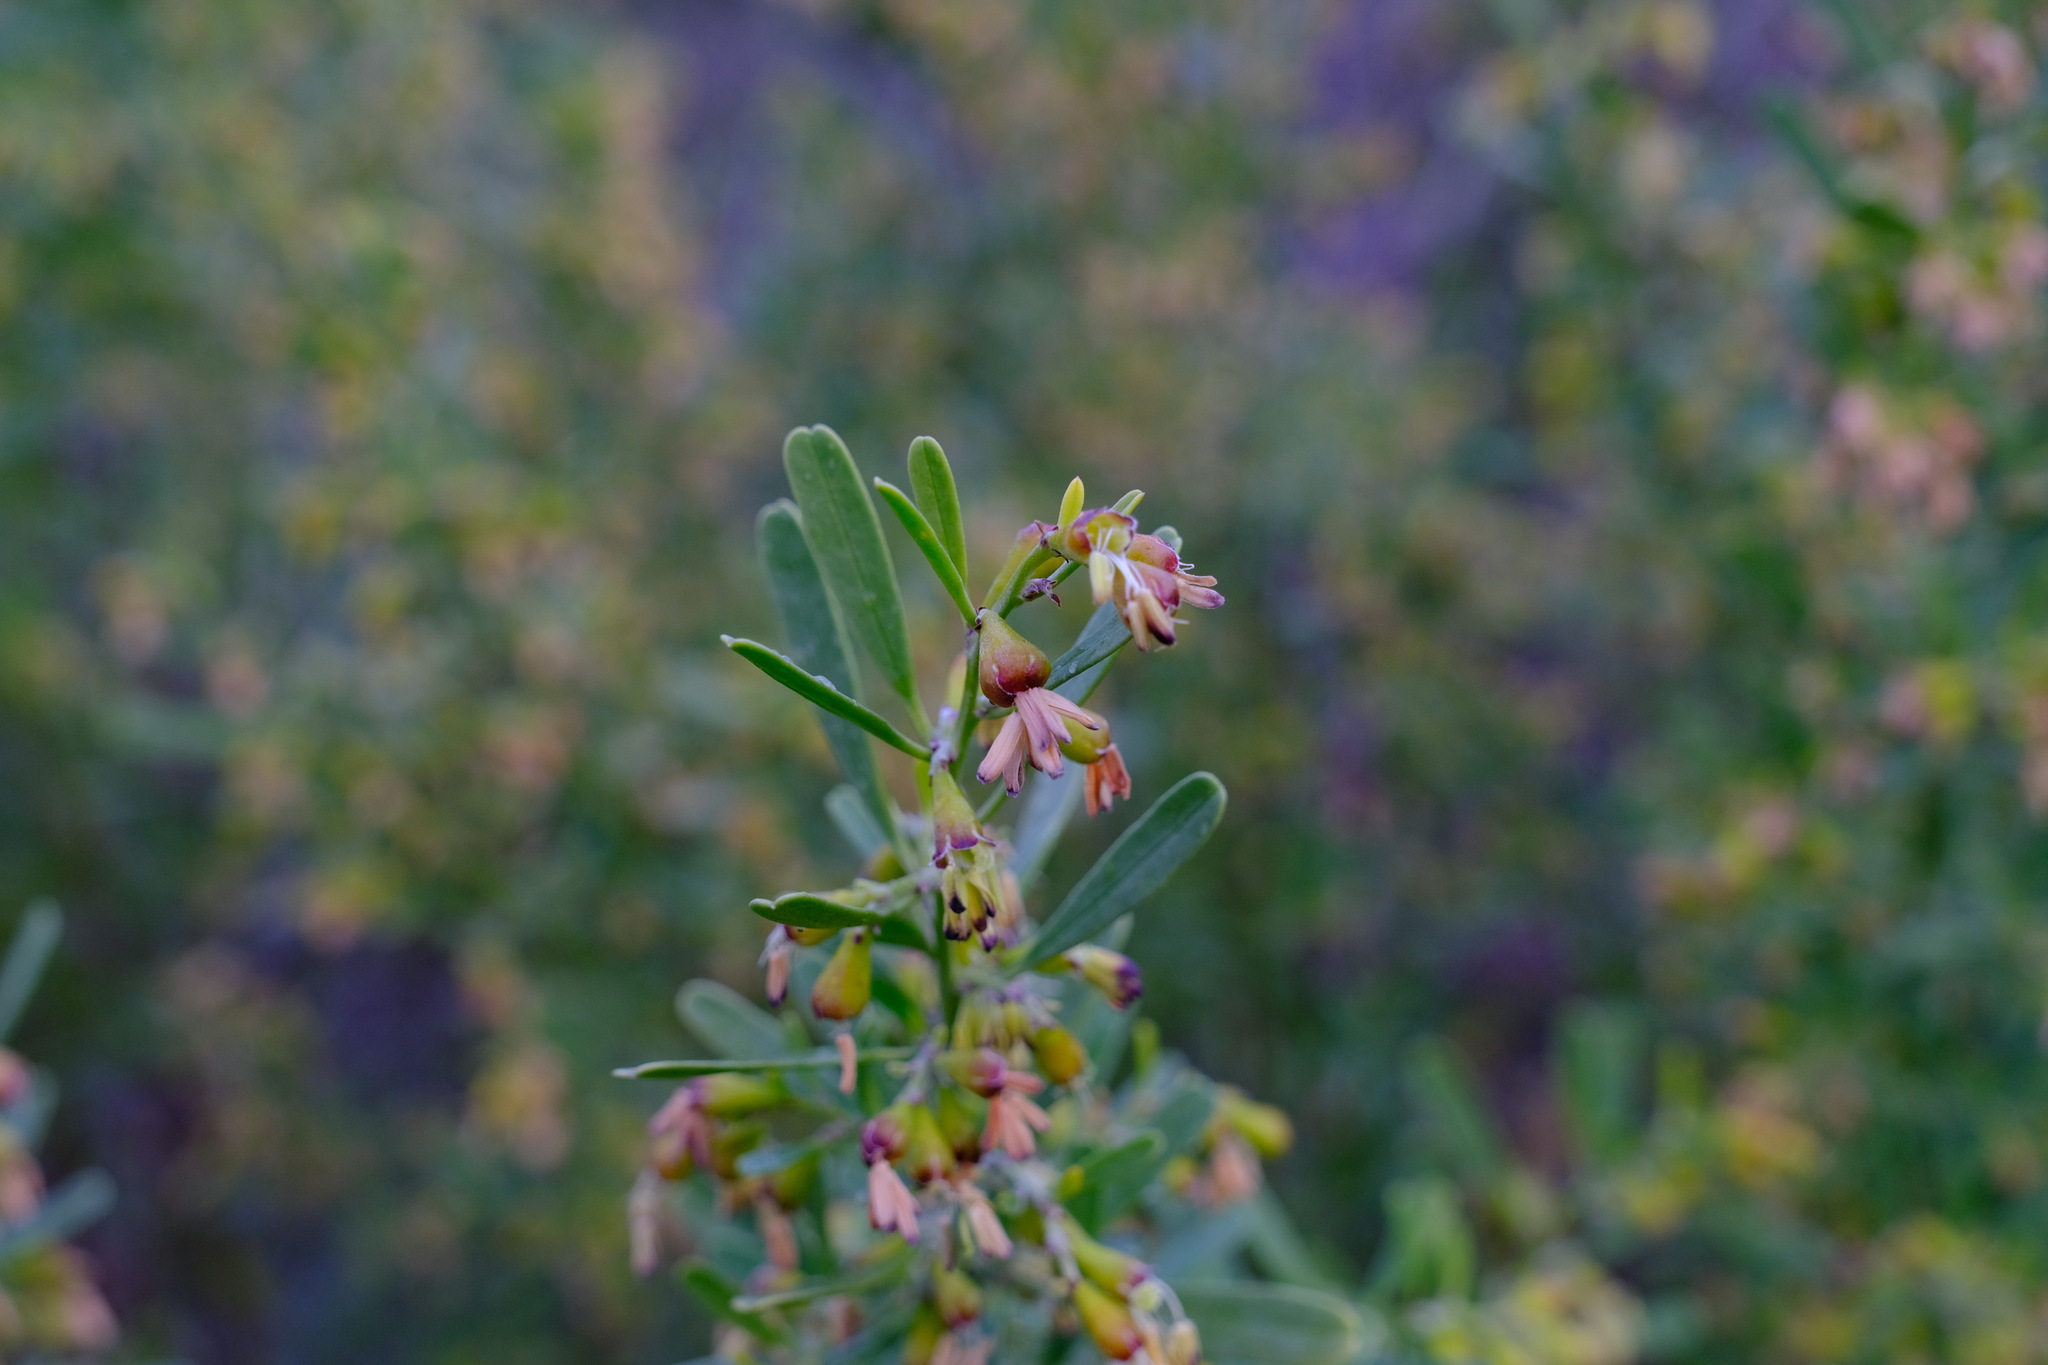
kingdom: Plantae
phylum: Tracheophyta
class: Magnoliopsida
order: Fabales
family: Surianaceae
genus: Stylobasium
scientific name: Stylobasium spathulatum
